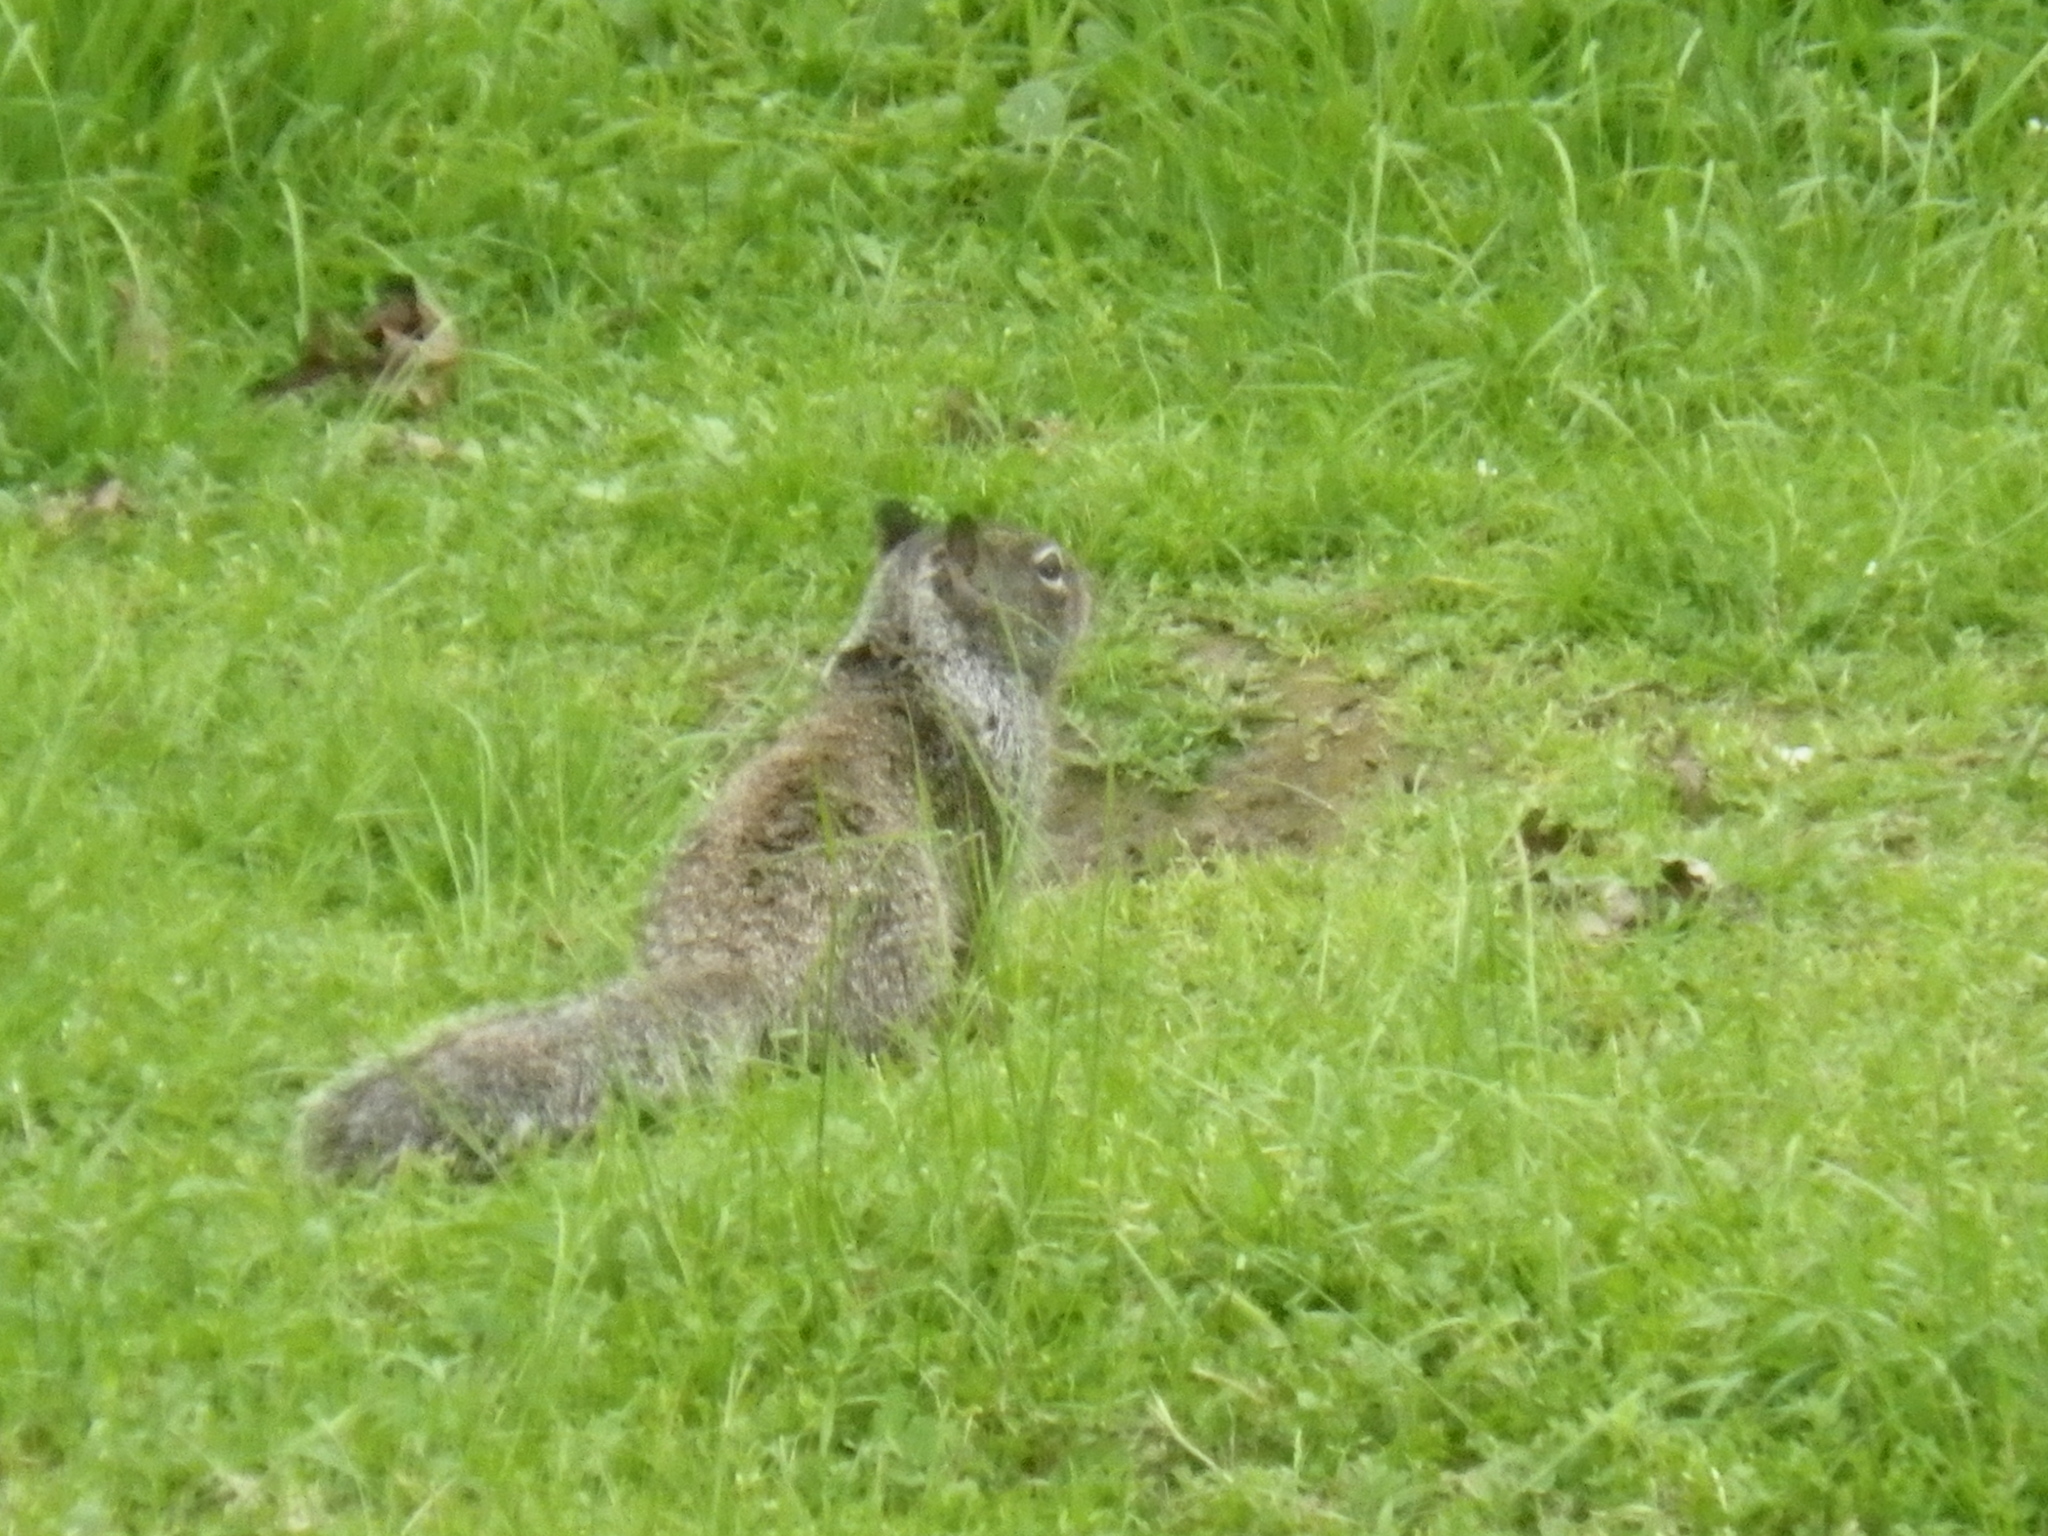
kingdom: Animalia
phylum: Chordata
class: Mammalia
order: Rodentia
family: Sciuridae
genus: Otospermophilus
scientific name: Otospermophilus beecheyi
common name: California ground squirrel
